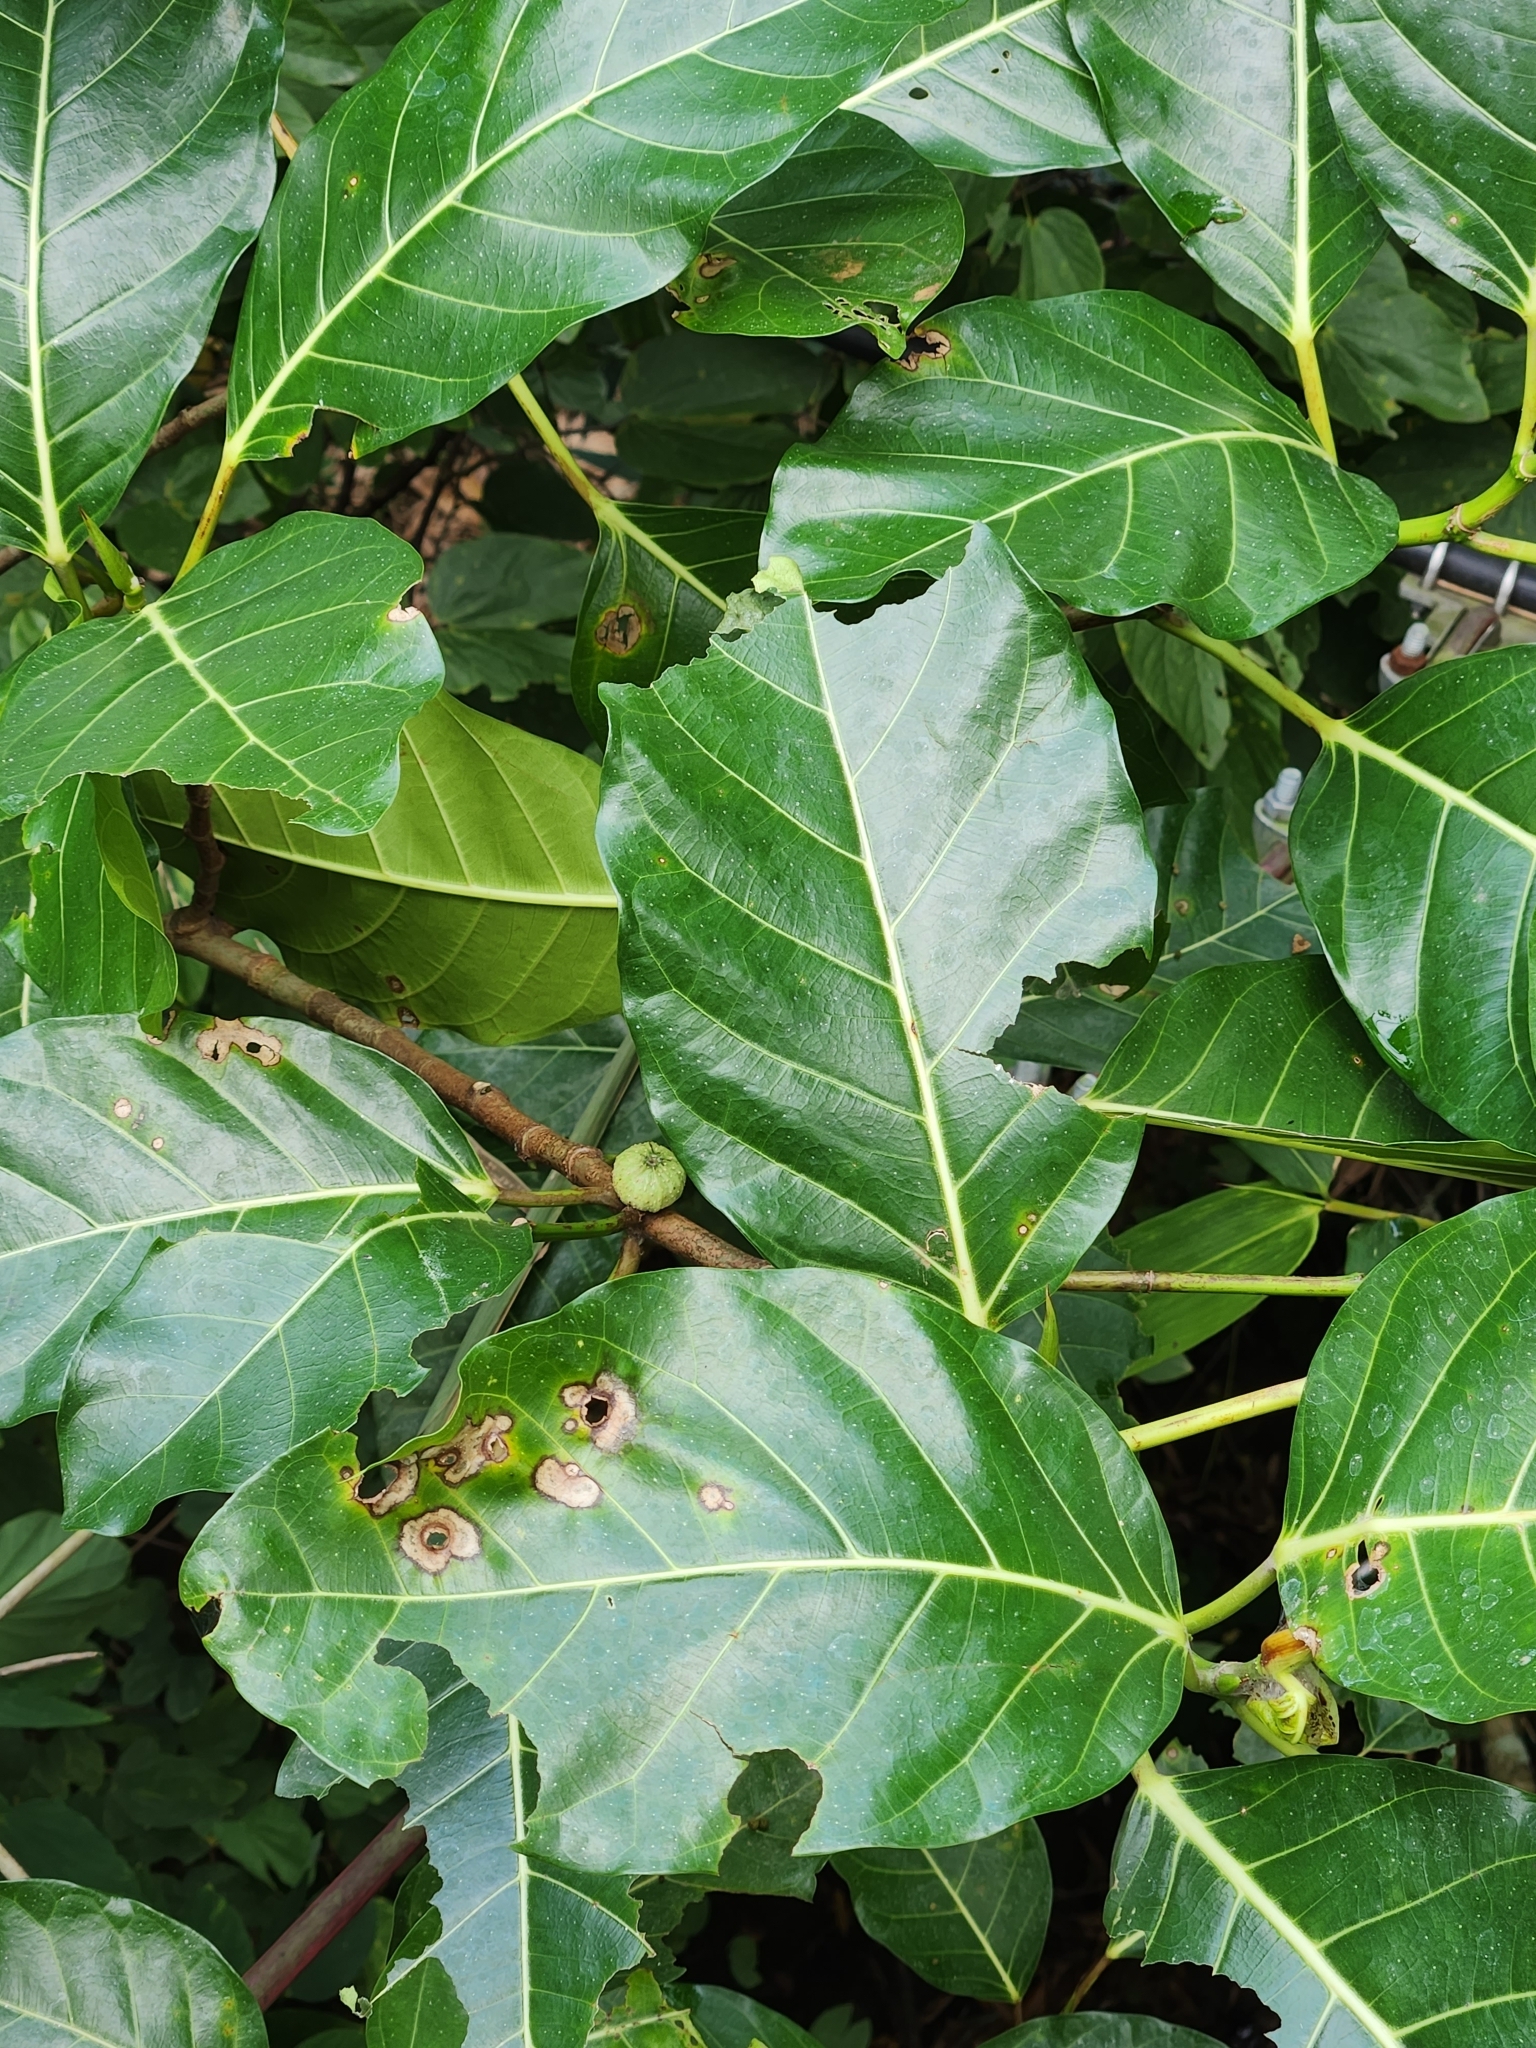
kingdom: Plantae
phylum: Tracheophyta
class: Magnoliopsida
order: Rosales
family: Moraceae
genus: Ficus
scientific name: Ficus septica
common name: Septic fig
